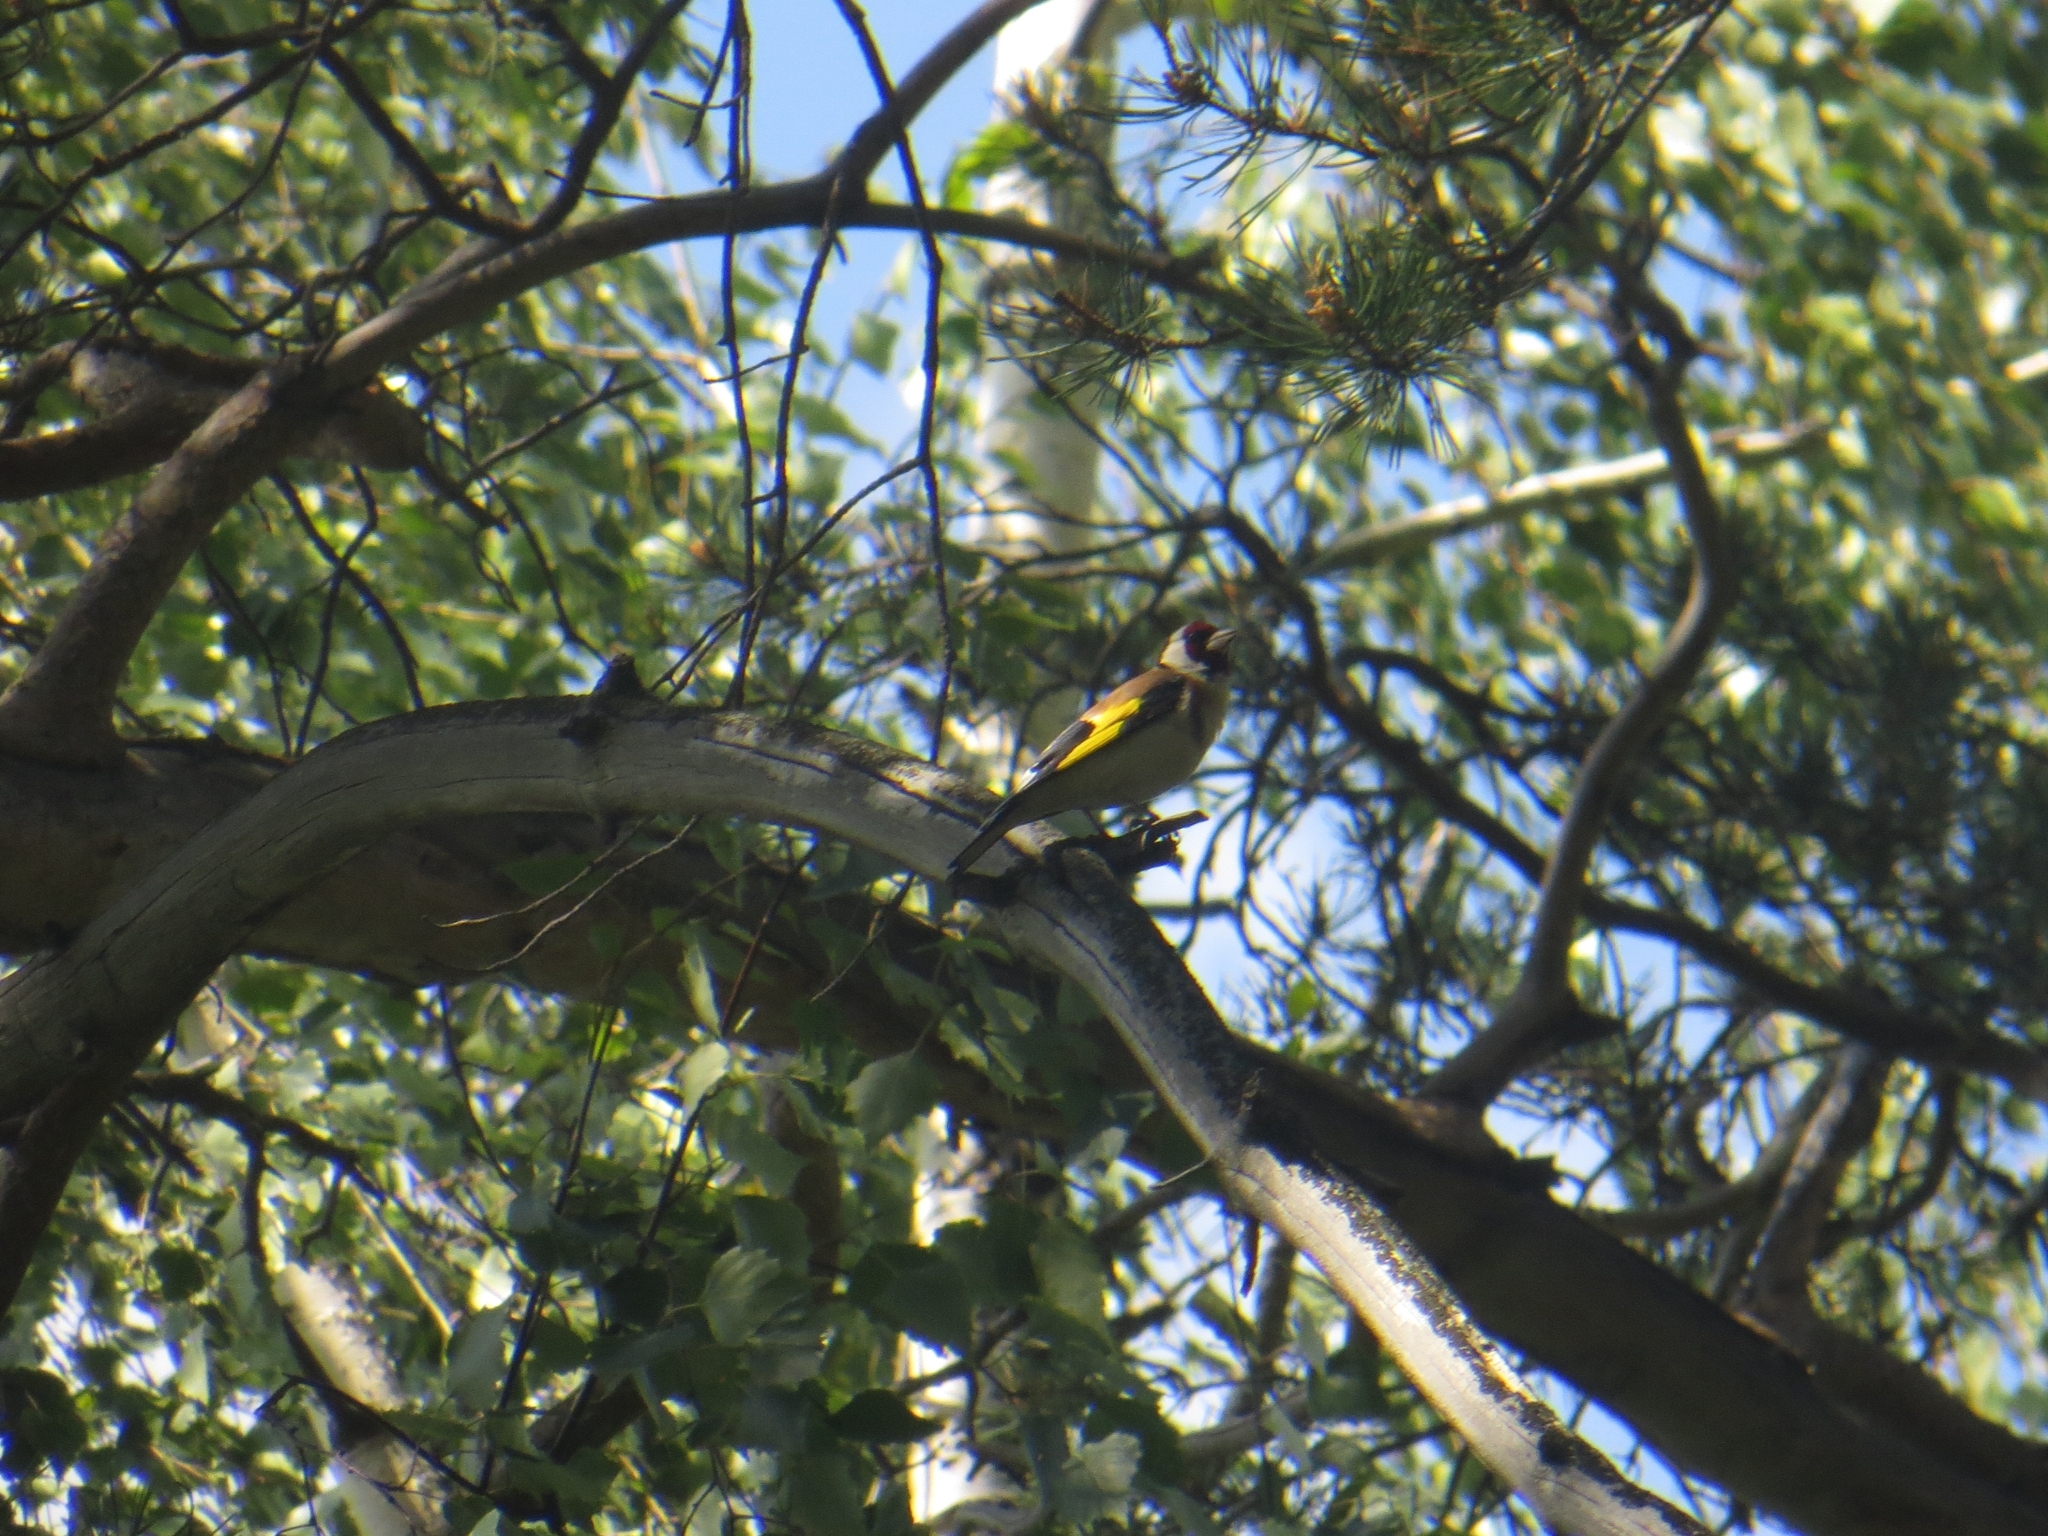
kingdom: Animalia
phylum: Chordata
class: Aves
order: Passeriformes
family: Fringillidae
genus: Carduelis
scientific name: Carduelis carduelis
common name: European goldfinch
